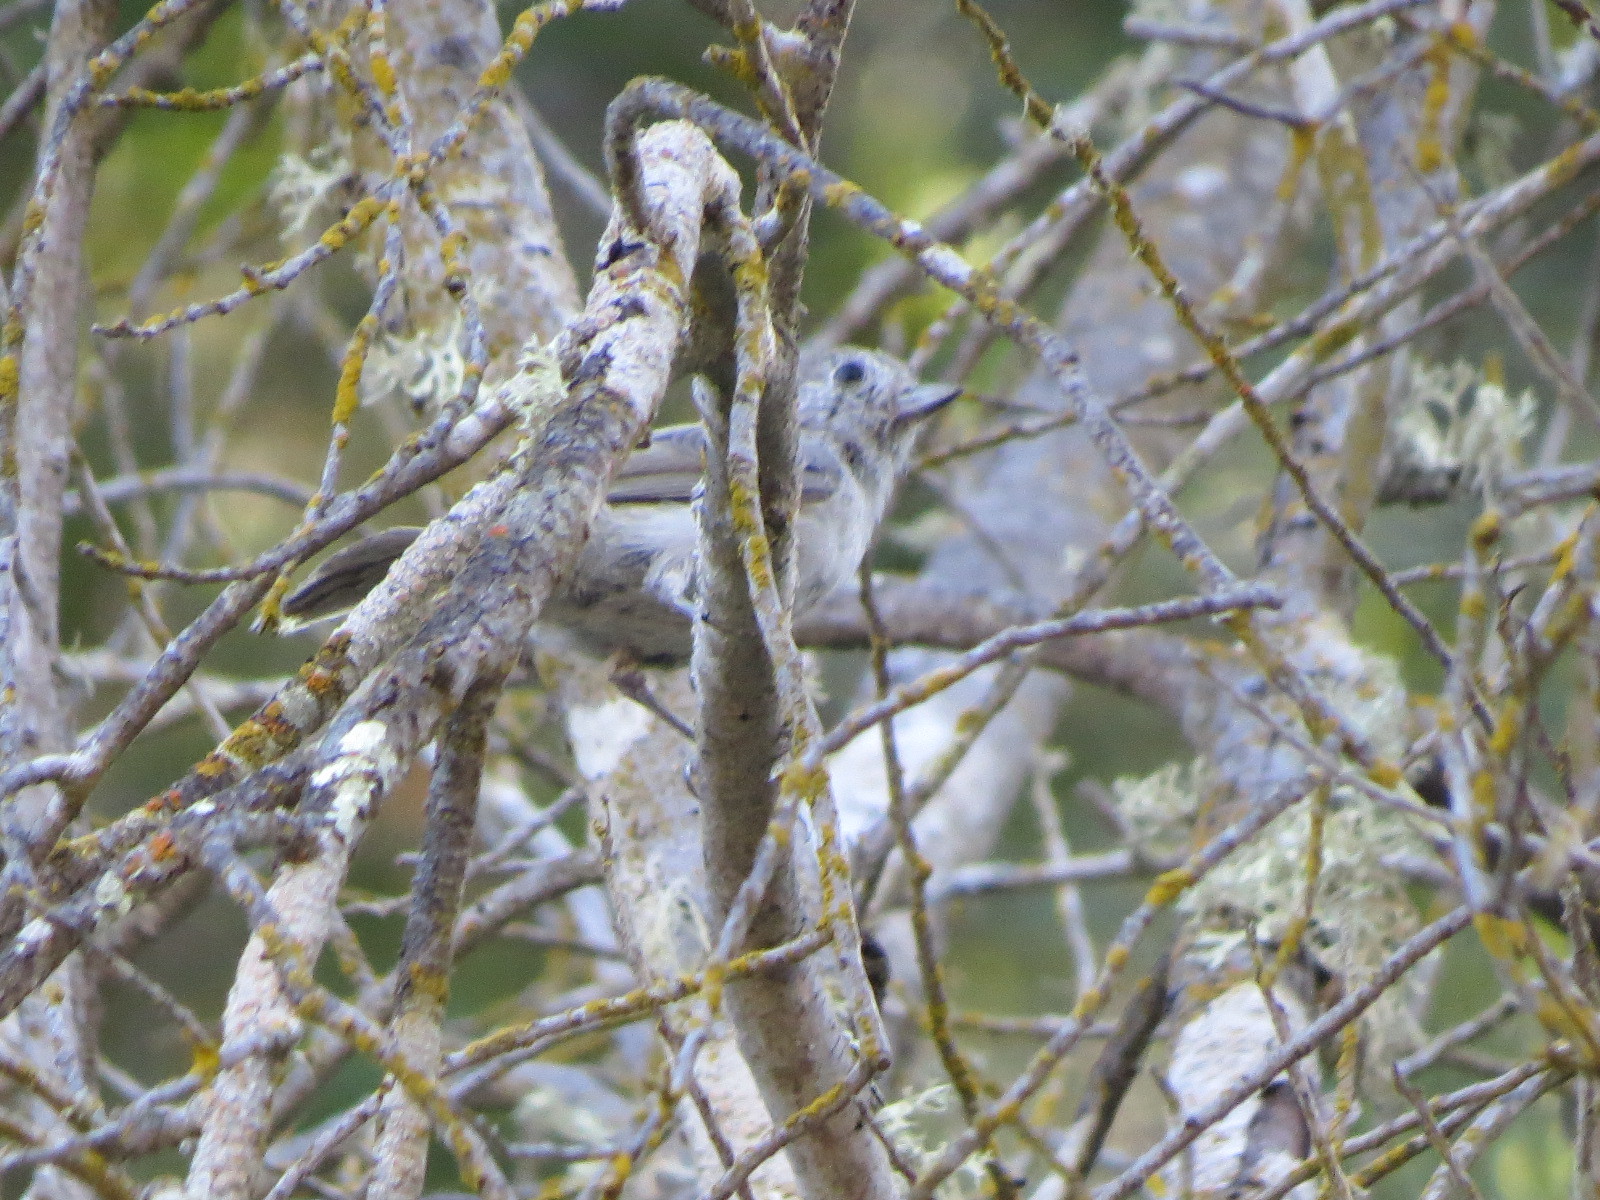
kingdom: Animalia
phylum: Chordata
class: Aves
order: Passeriformes
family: Paridae
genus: Baeolophus
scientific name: Baeolophus inornatus
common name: Oak titmouse
